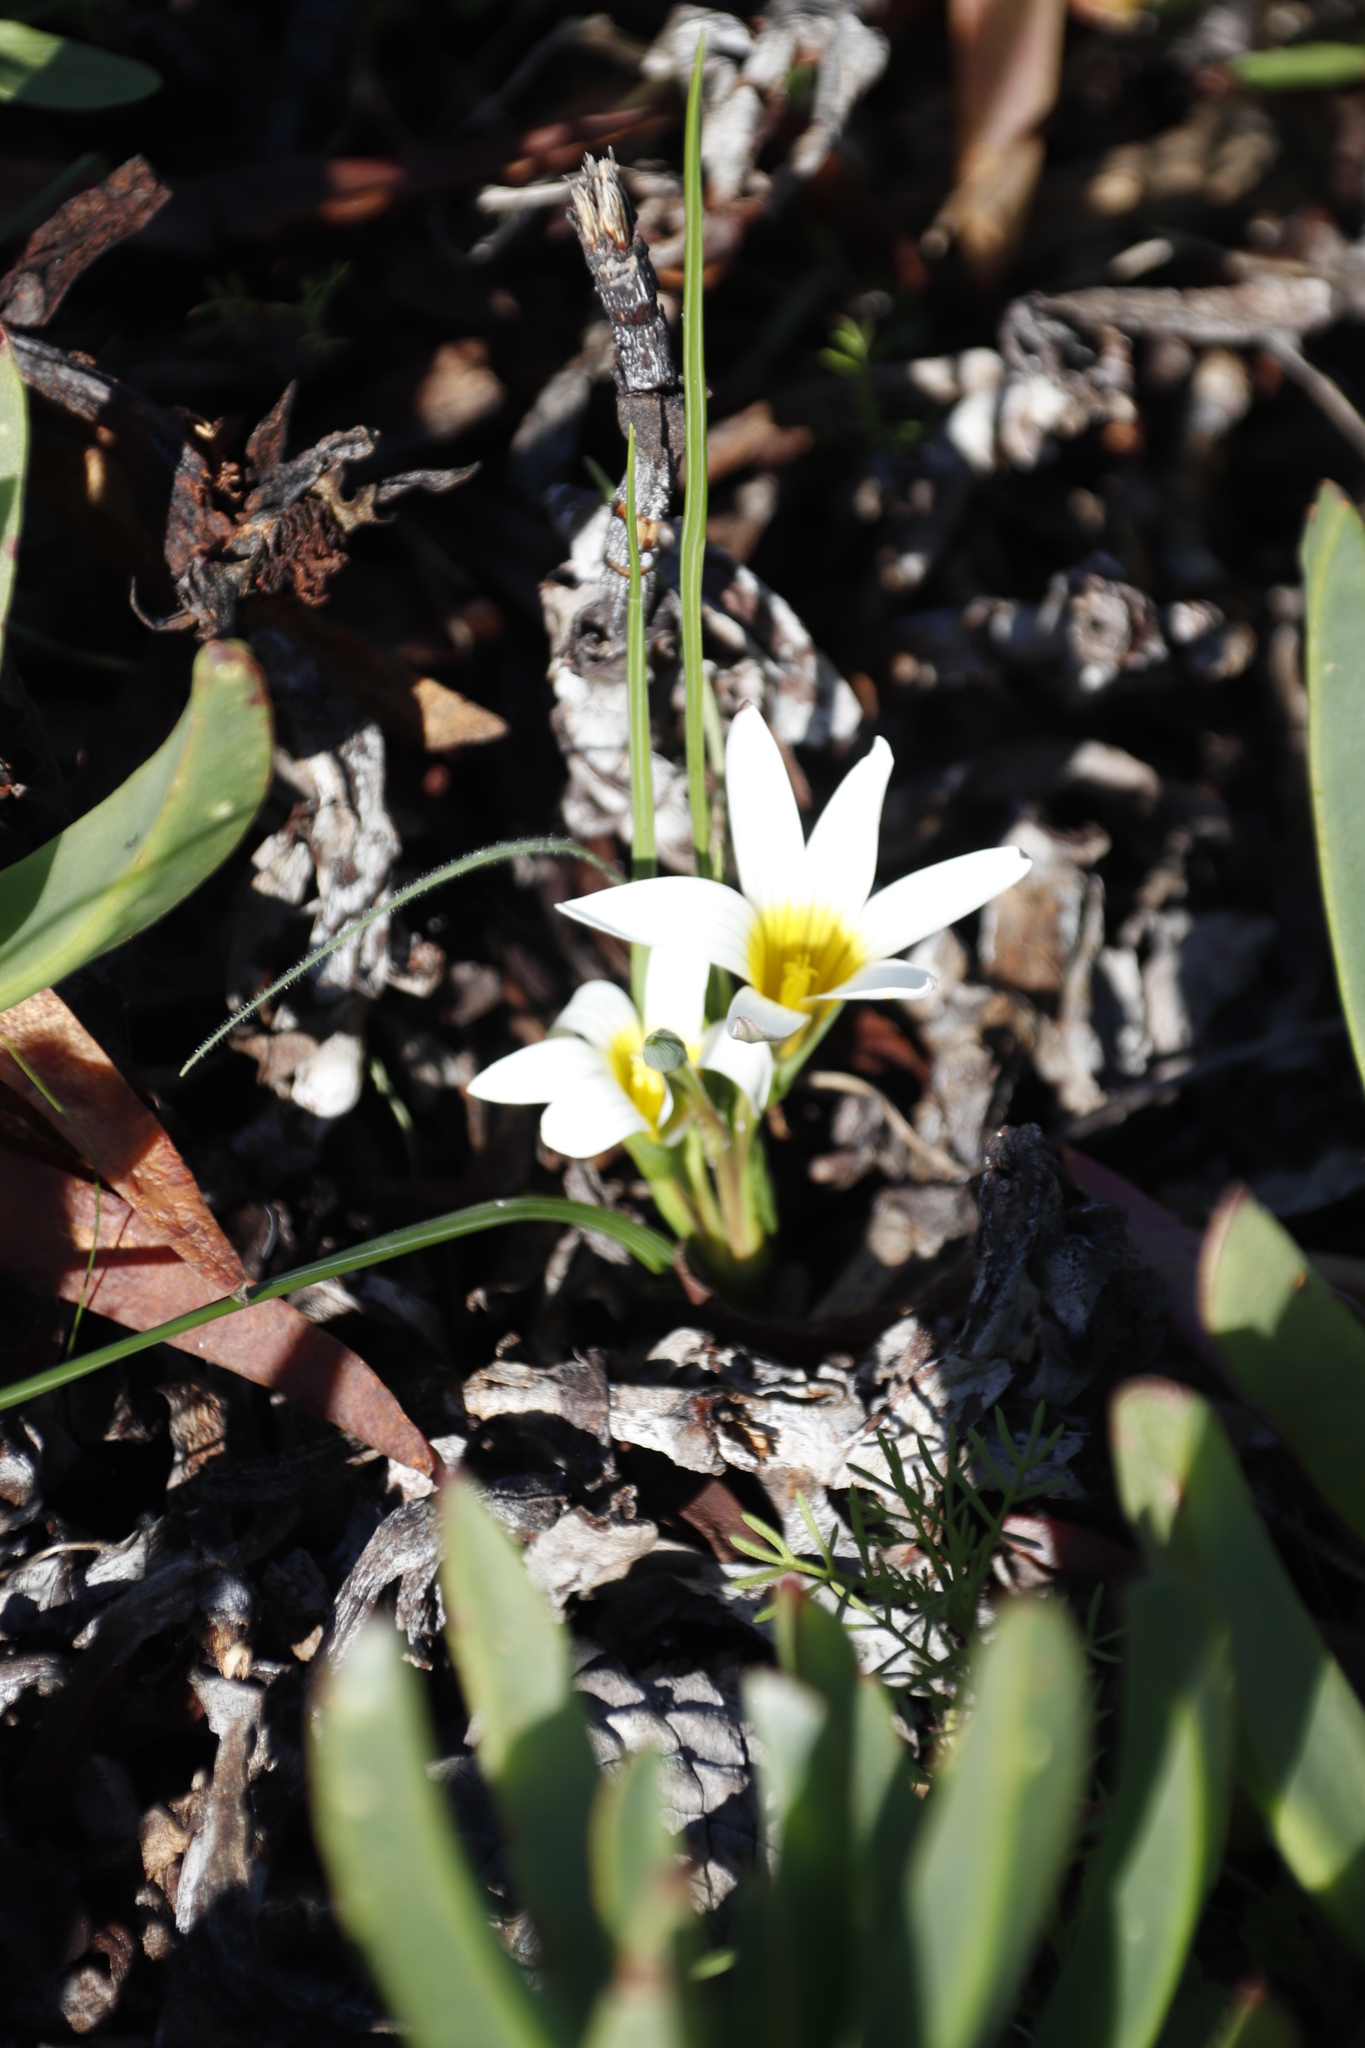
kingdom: Plantae
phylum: Tracheophyta
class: Liliopsida
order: Asparagales
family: Iridaceae
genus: Romulea
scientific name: Romulea flava
